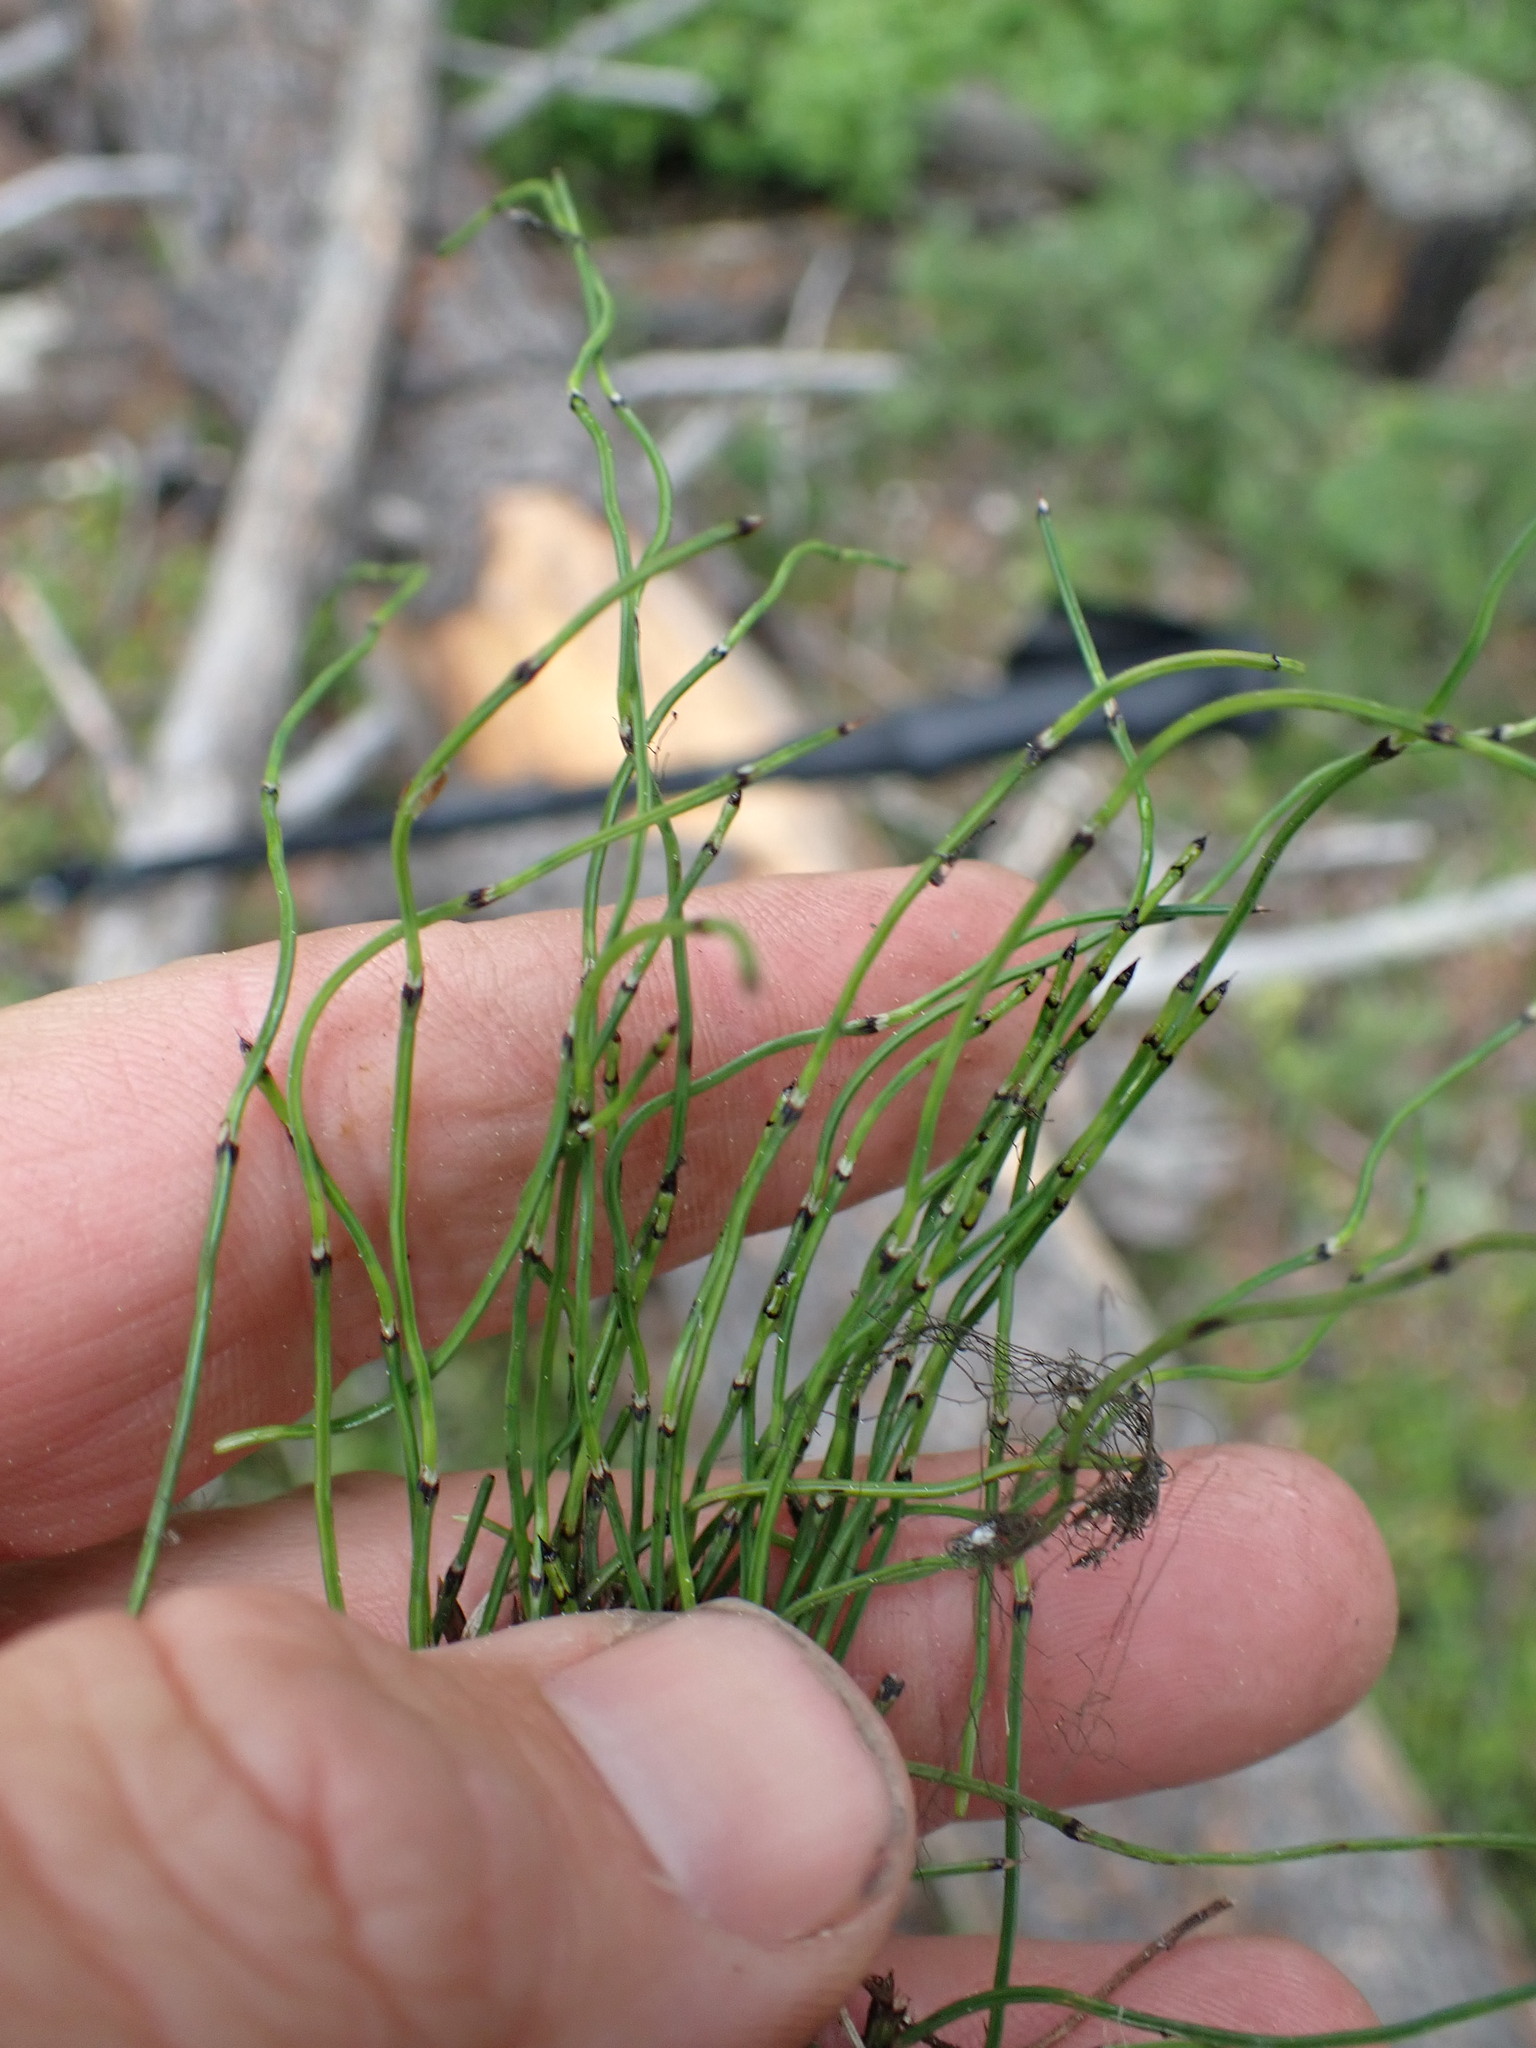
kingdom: Plantae
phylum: Tracheophyta
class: Polypodiopsida
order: Equisetales
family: Equisetaceae
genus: Equisetum
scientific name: Equisetum scirpoides
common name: Delicate horsetail
